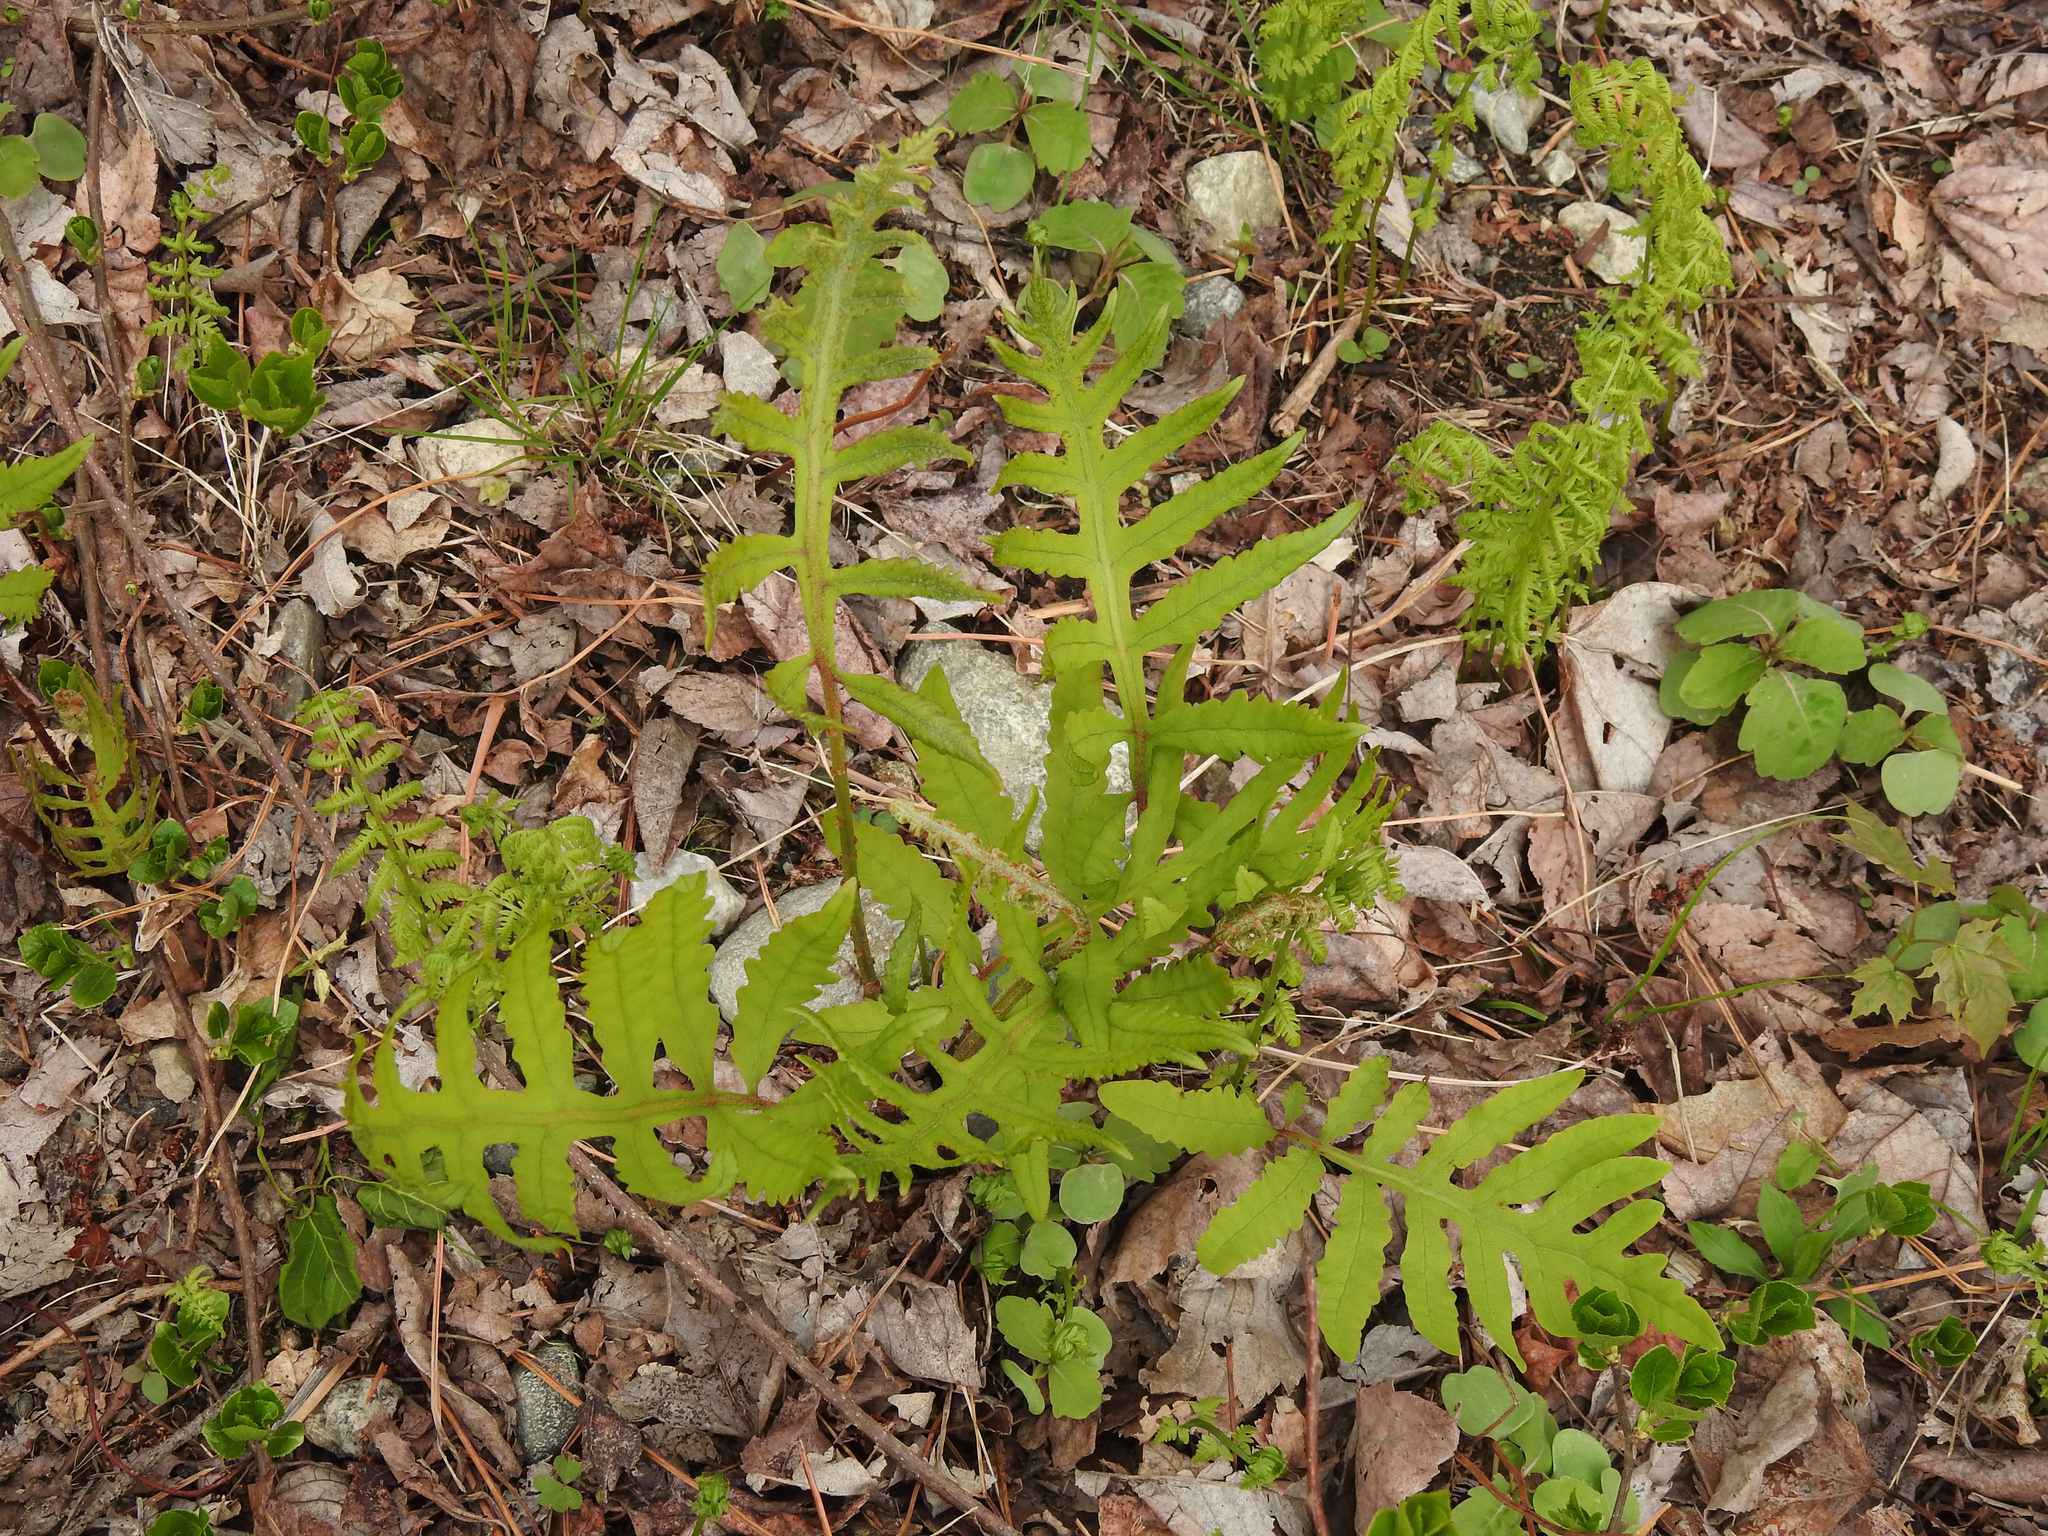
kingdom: Plantae
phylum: Tracheophyta
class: Polypodiopsida
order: Polypodiales
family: Onocleaceae
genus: Onoclea
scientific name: Onoclea sensibilis
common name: Sensitive fern
